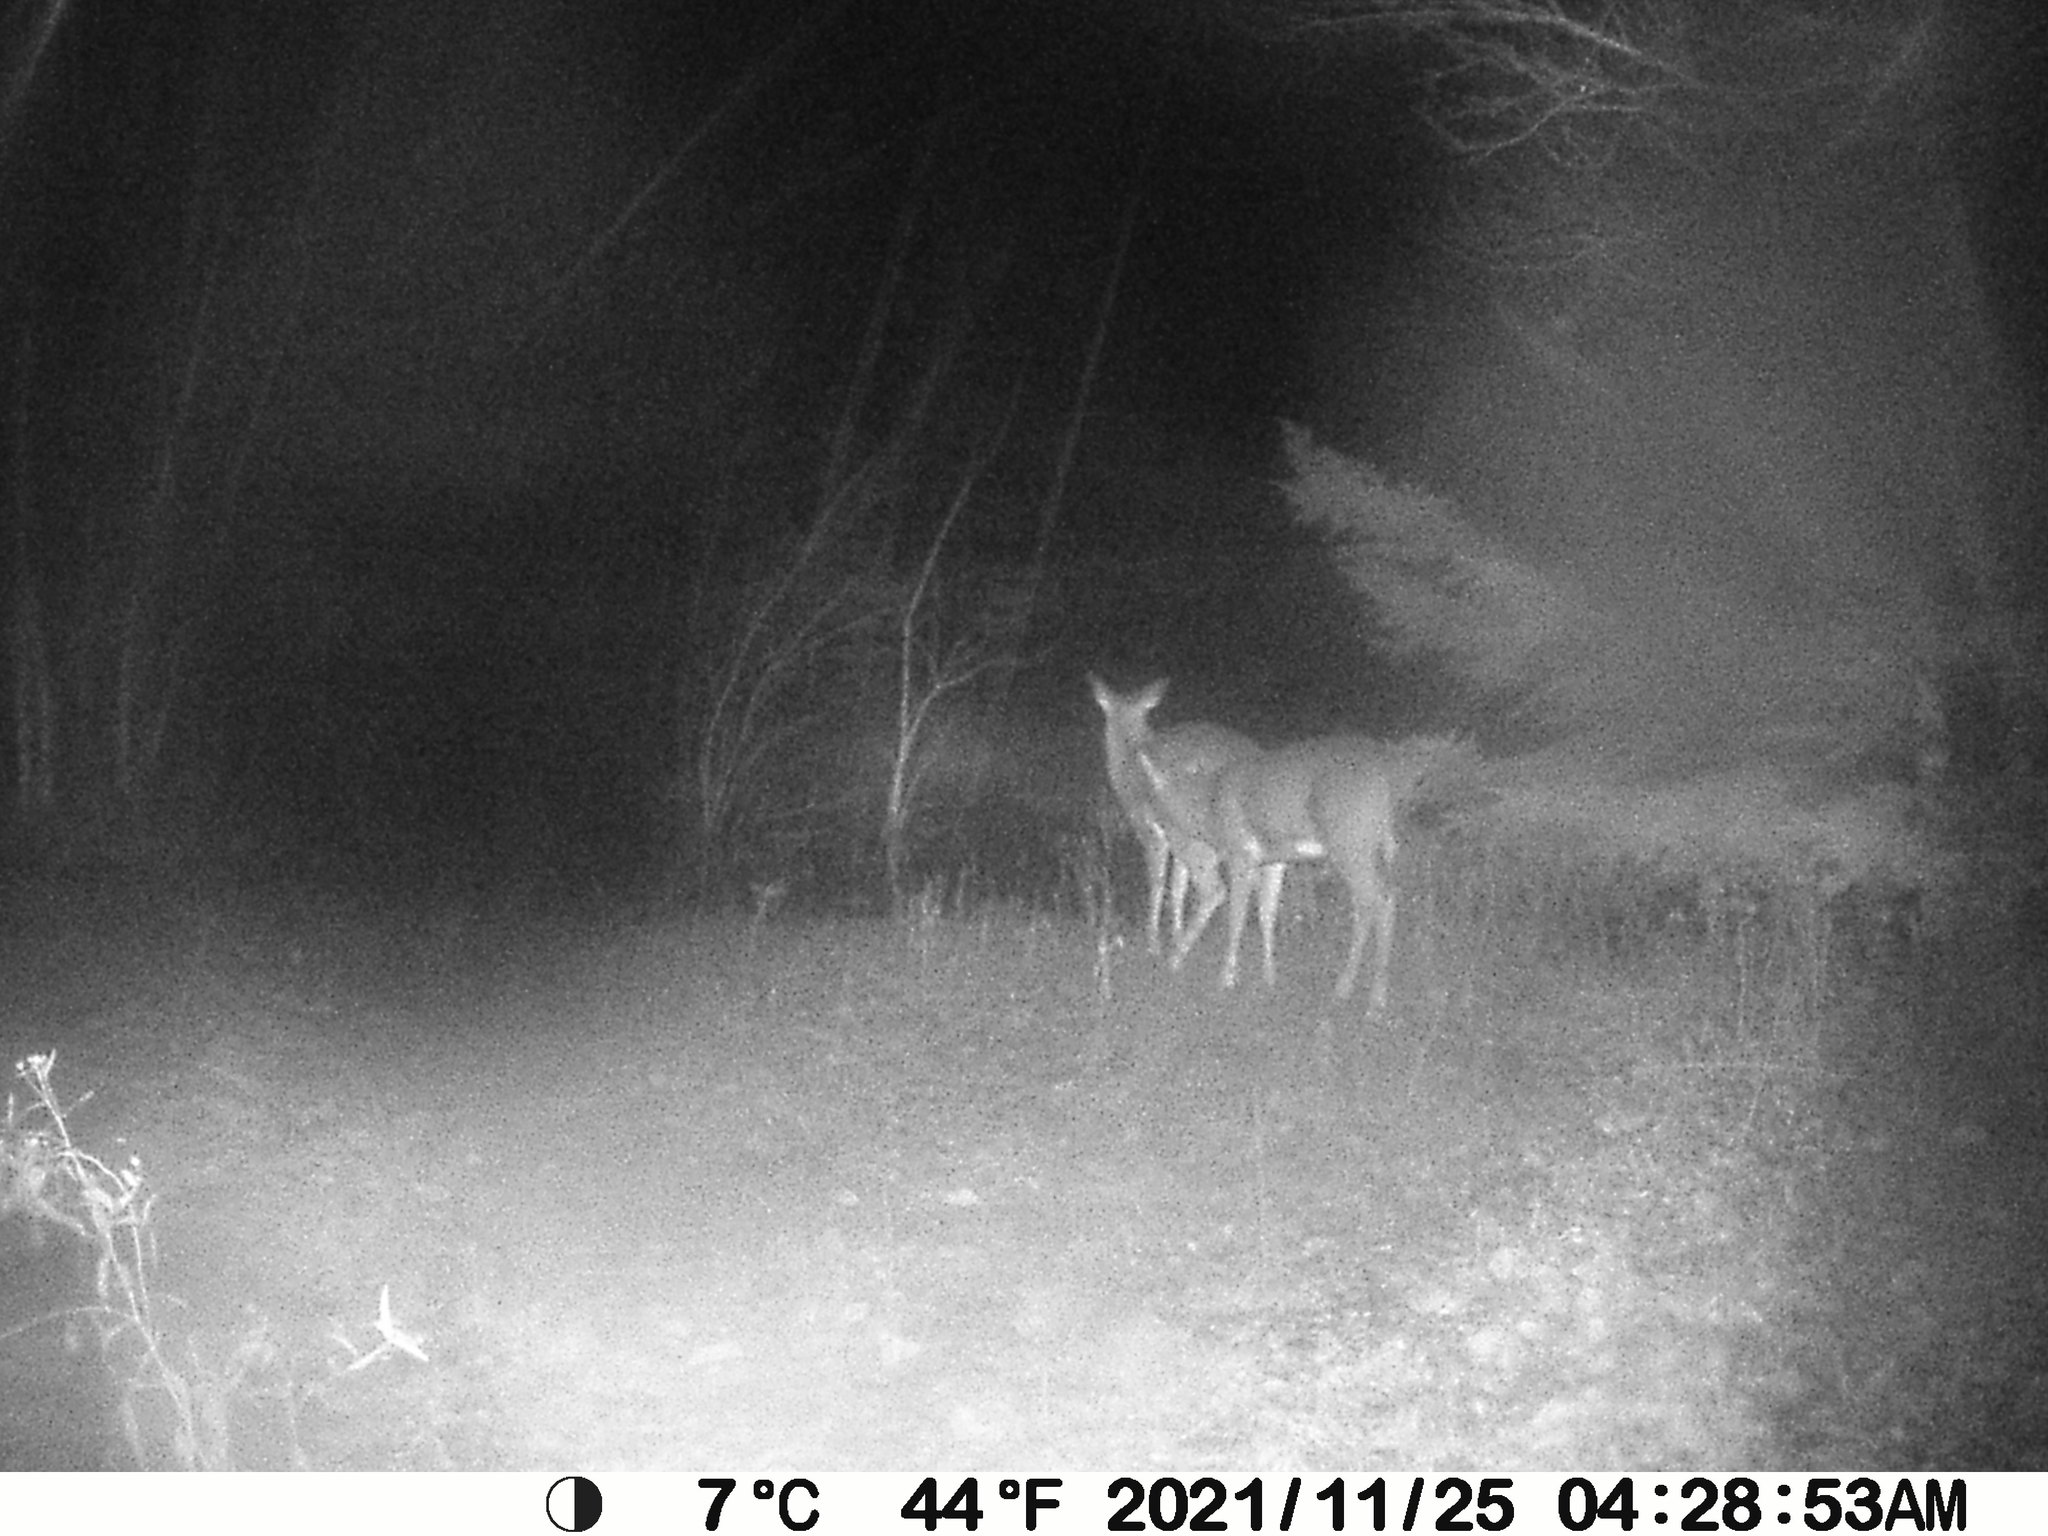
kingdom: Animalia
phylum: Chordata
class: Mammalia
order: Artiodactyla
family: Cervidae
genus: Odocoileus
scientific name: Odocoileus virginianus
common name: White-tailed deer
